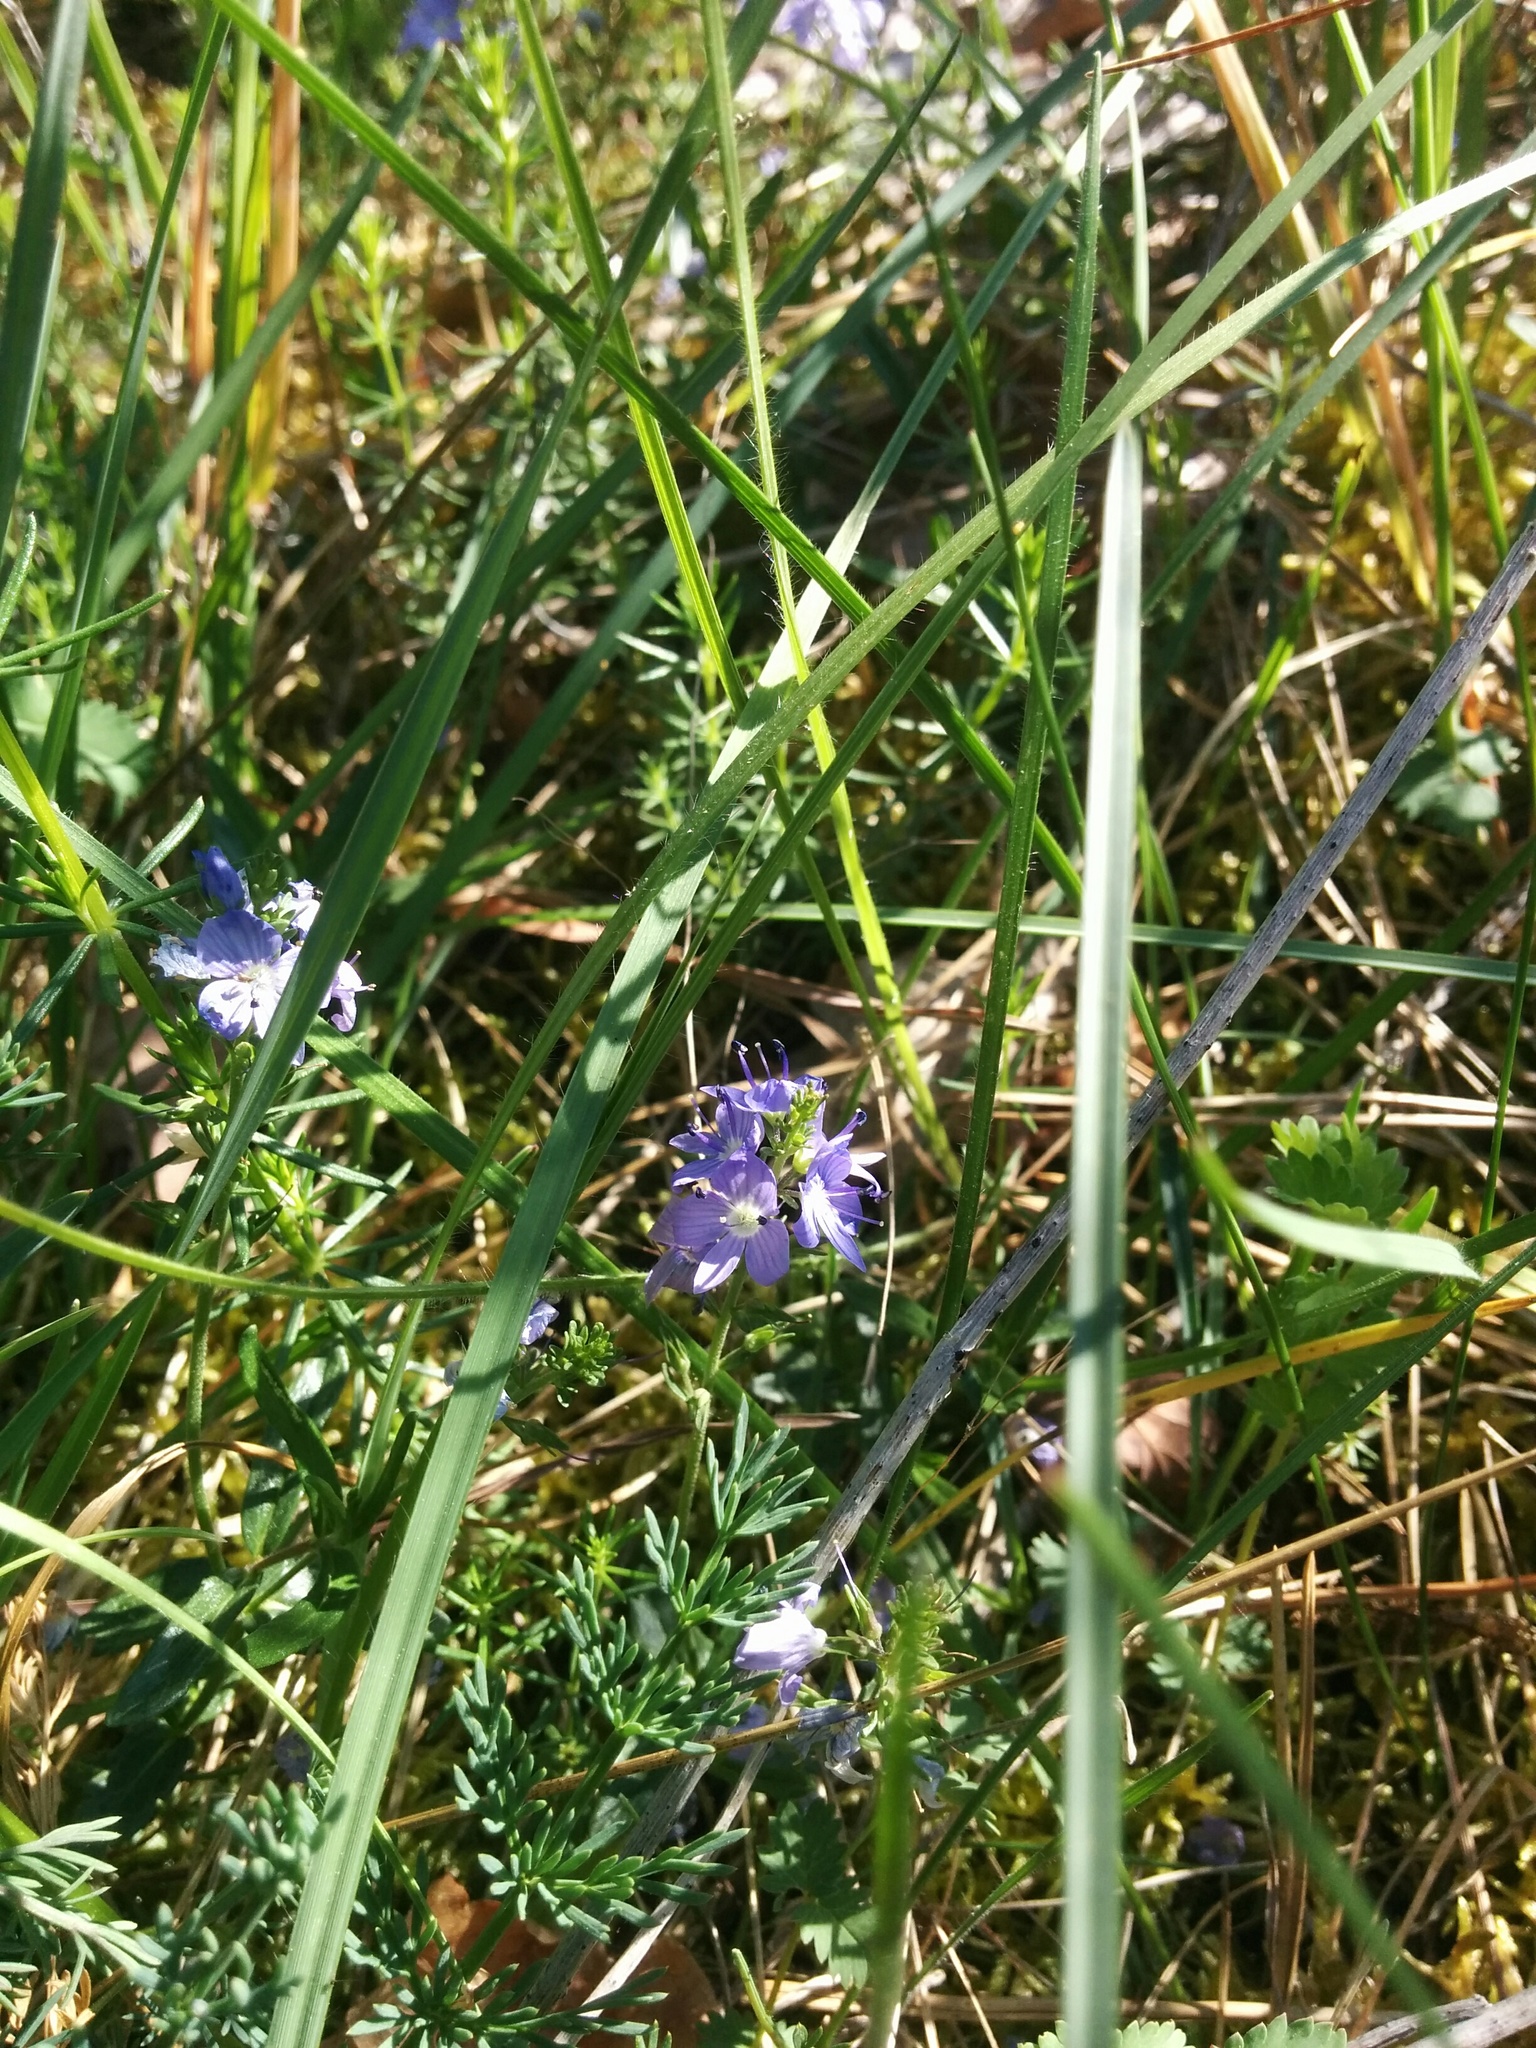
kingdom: Plantae
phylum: Tracheophyta
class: Magnoliopsida
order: Lamiales
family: Plantaginaceae
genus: Veronica
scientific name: Veronica satureiifolia
